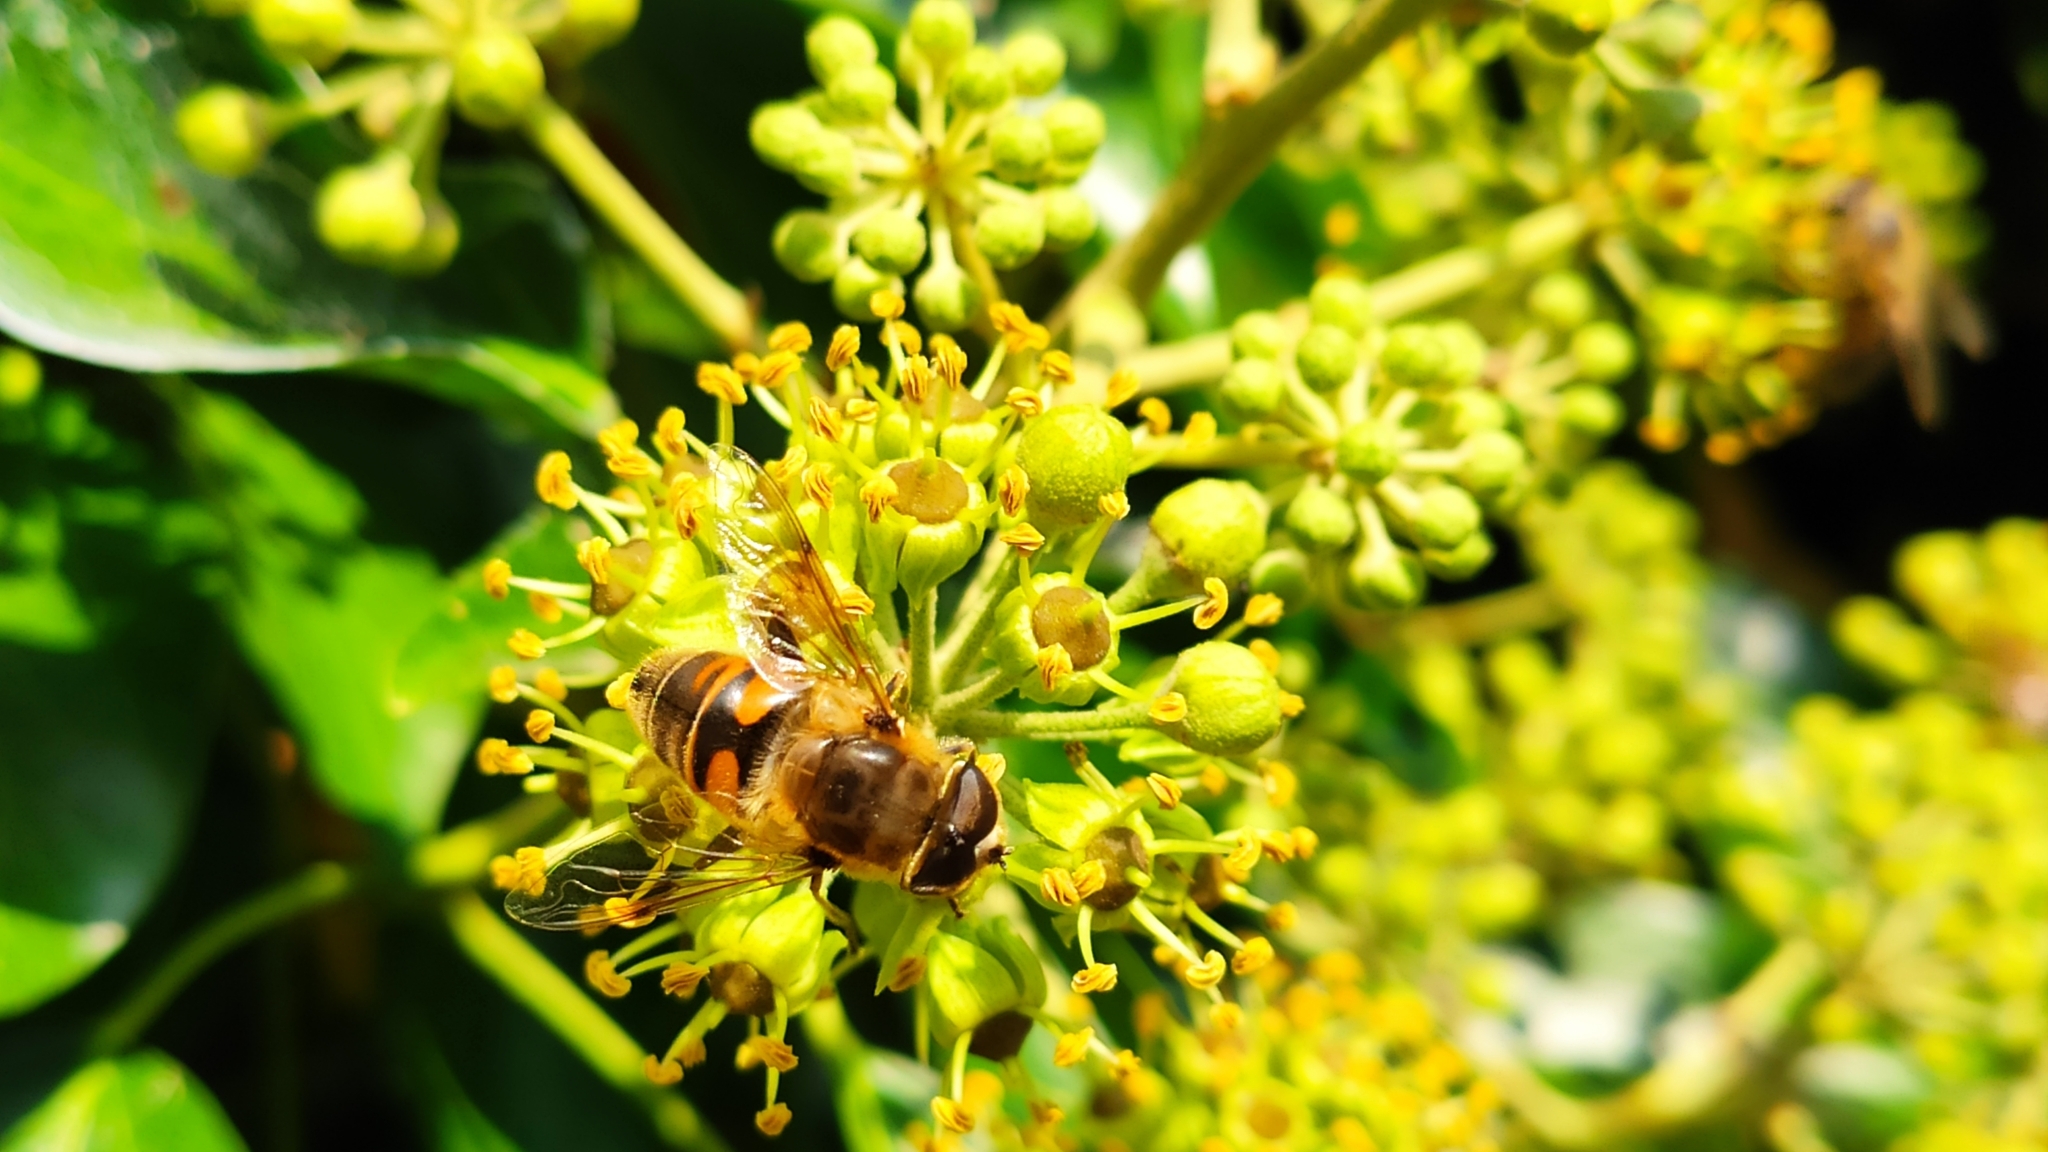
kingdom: Animalia
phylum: Arthropoda
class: Insecta
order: Diptera
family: Syrphidae
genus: Eristalis
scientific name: Eristalis tenax
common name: Drone fly
